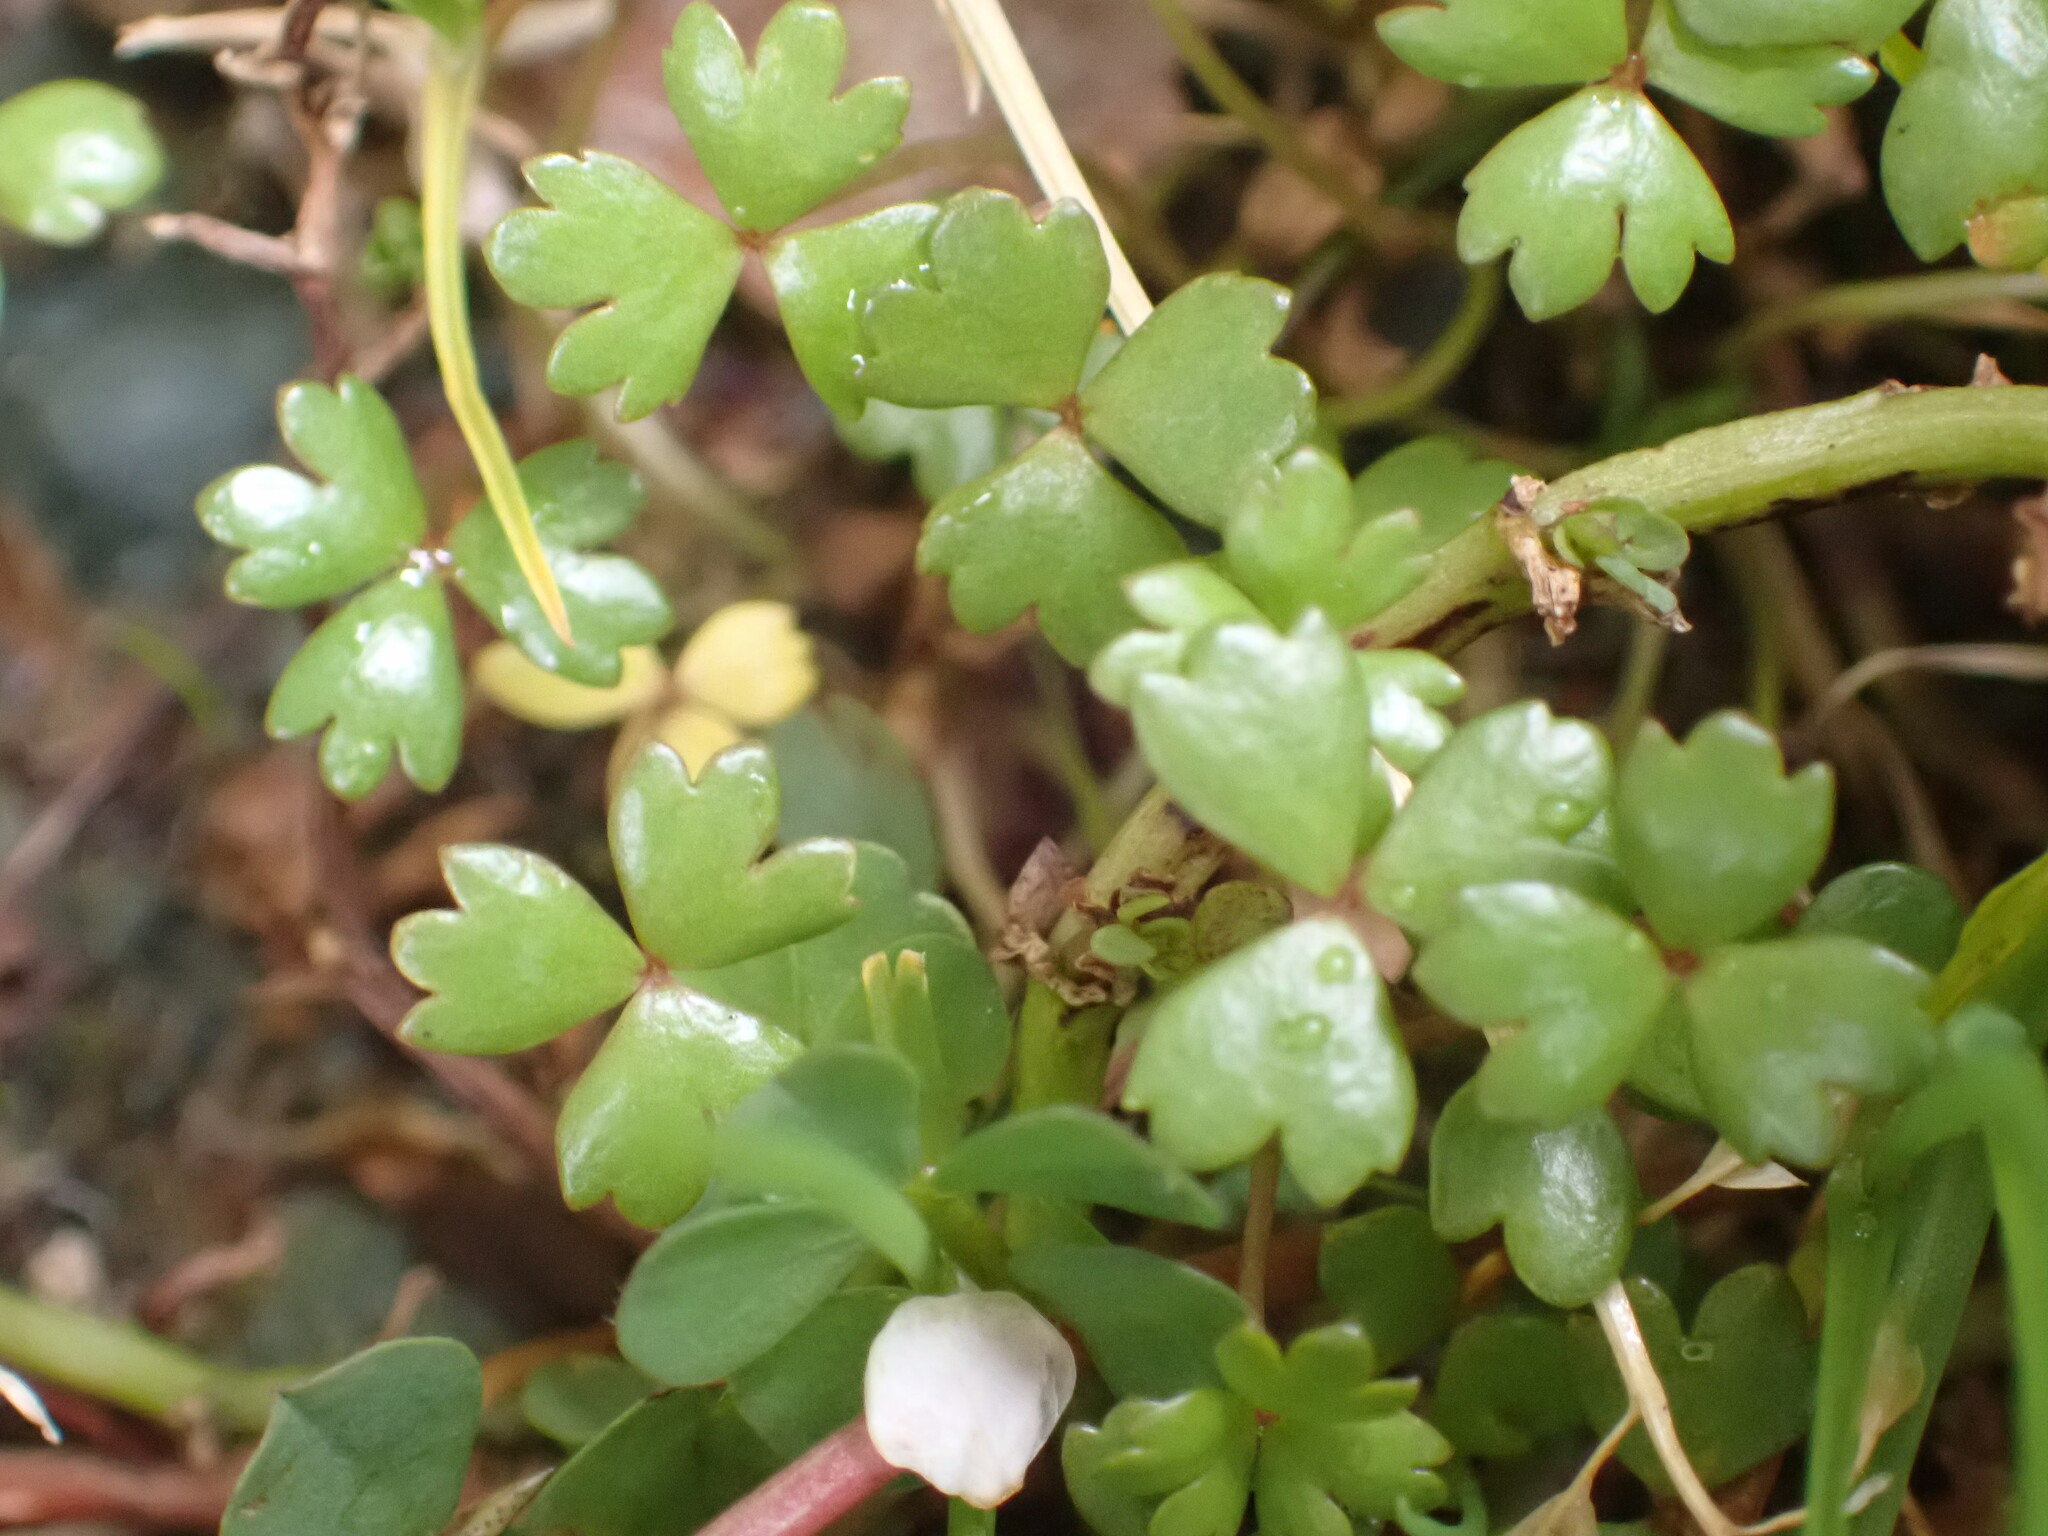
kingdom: Plantae
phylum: Tracheophyta
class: Magnoliopsida
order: Apiales
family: Araliaceae
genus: Hydrocotyle
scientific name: Hydrocotyle sulcata
